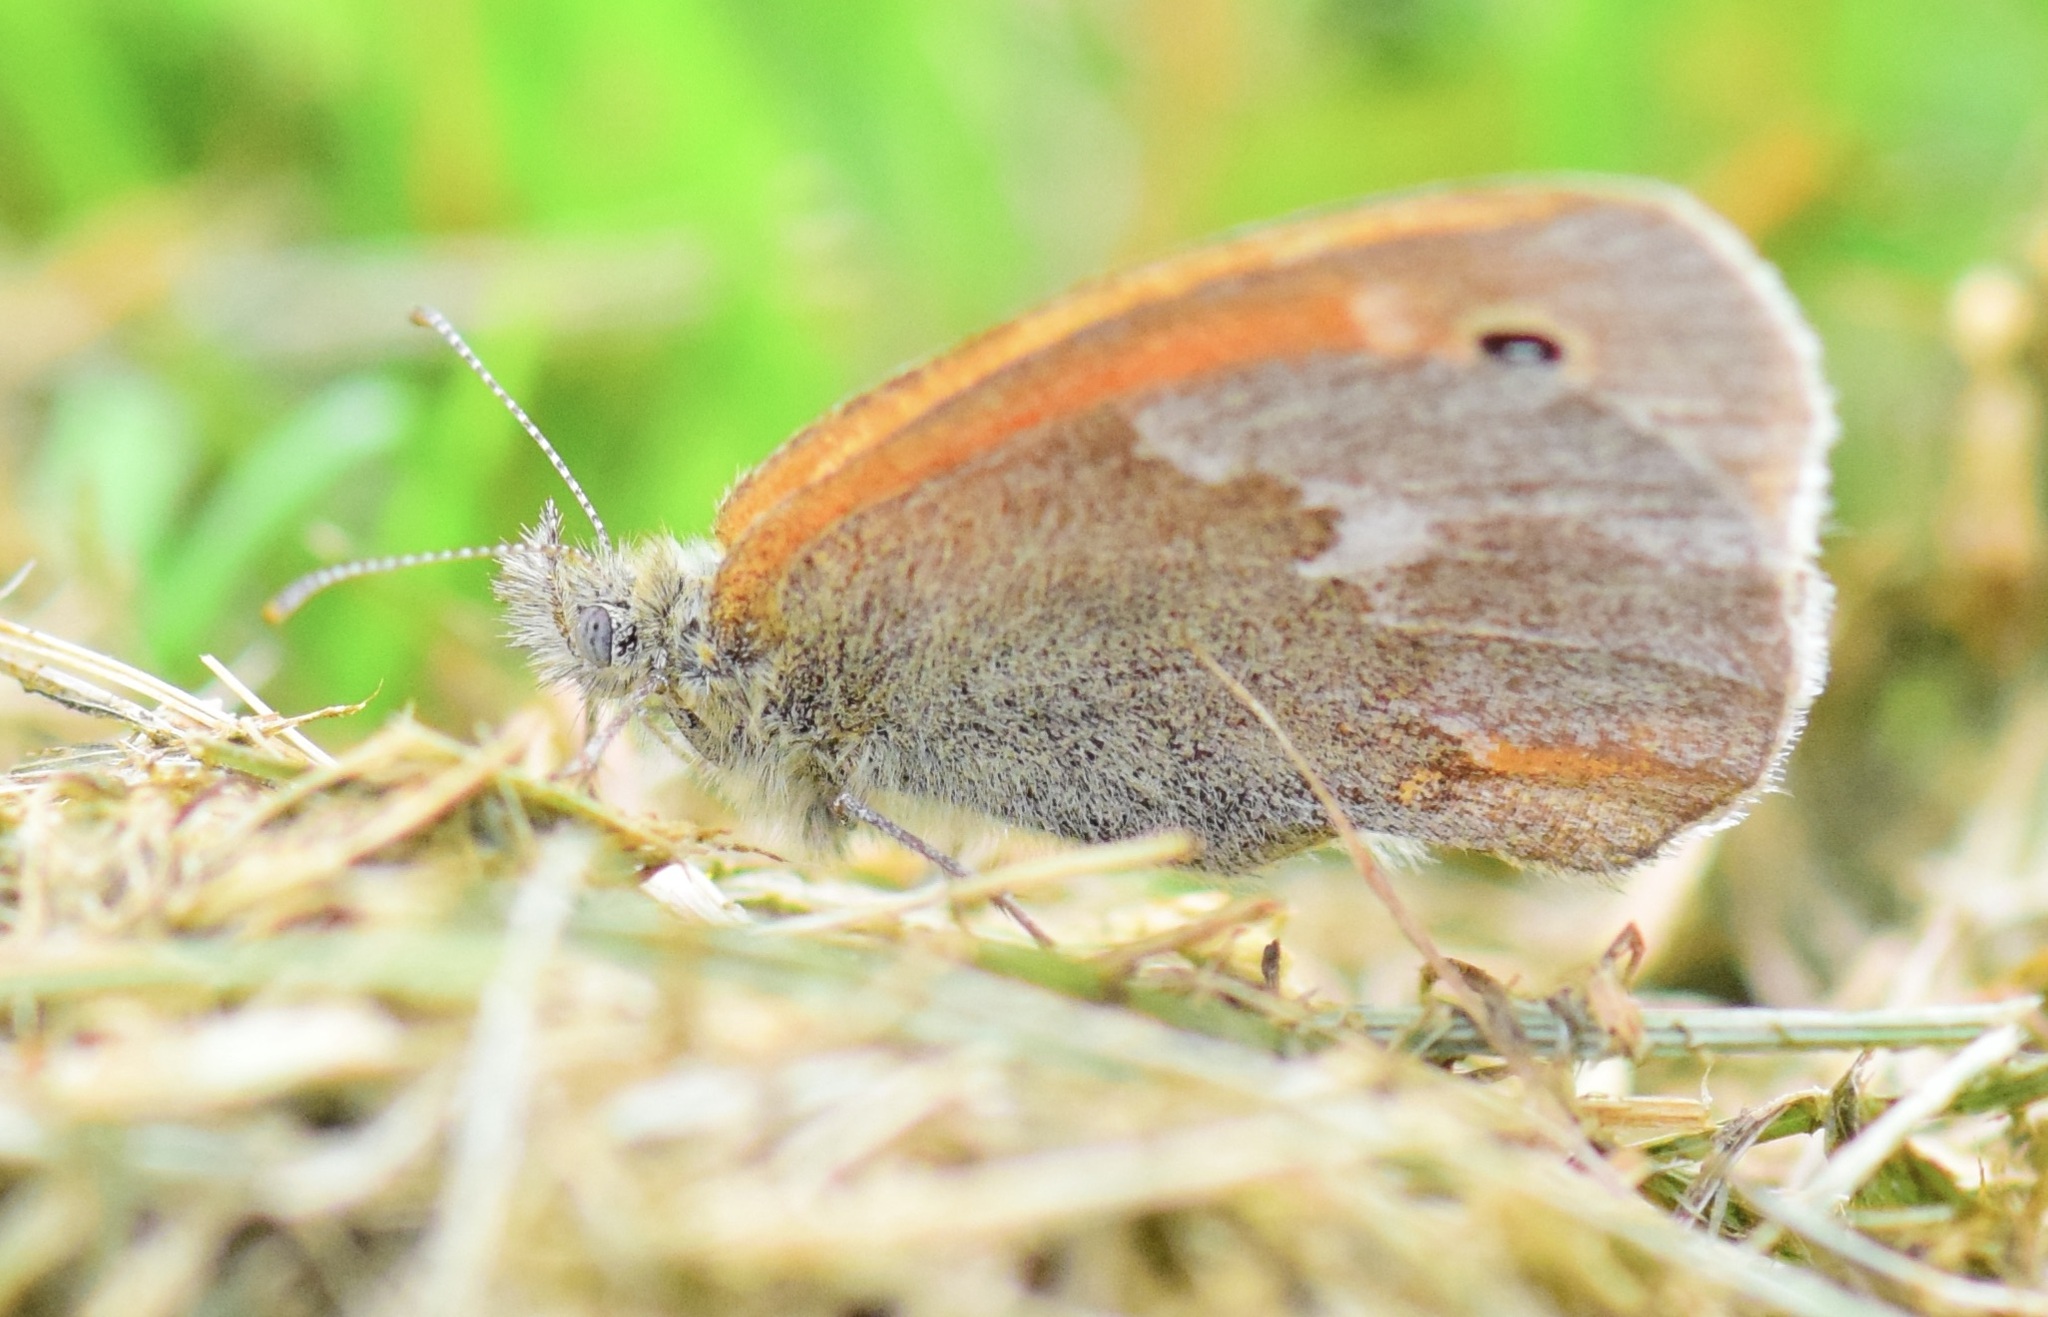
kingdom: Animalia
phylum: Arthropoda
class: Insecta
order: Lepidoptera
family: Nymphalidae
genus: Coenonympha
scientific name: Coenonympha california
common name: Common ringlet
